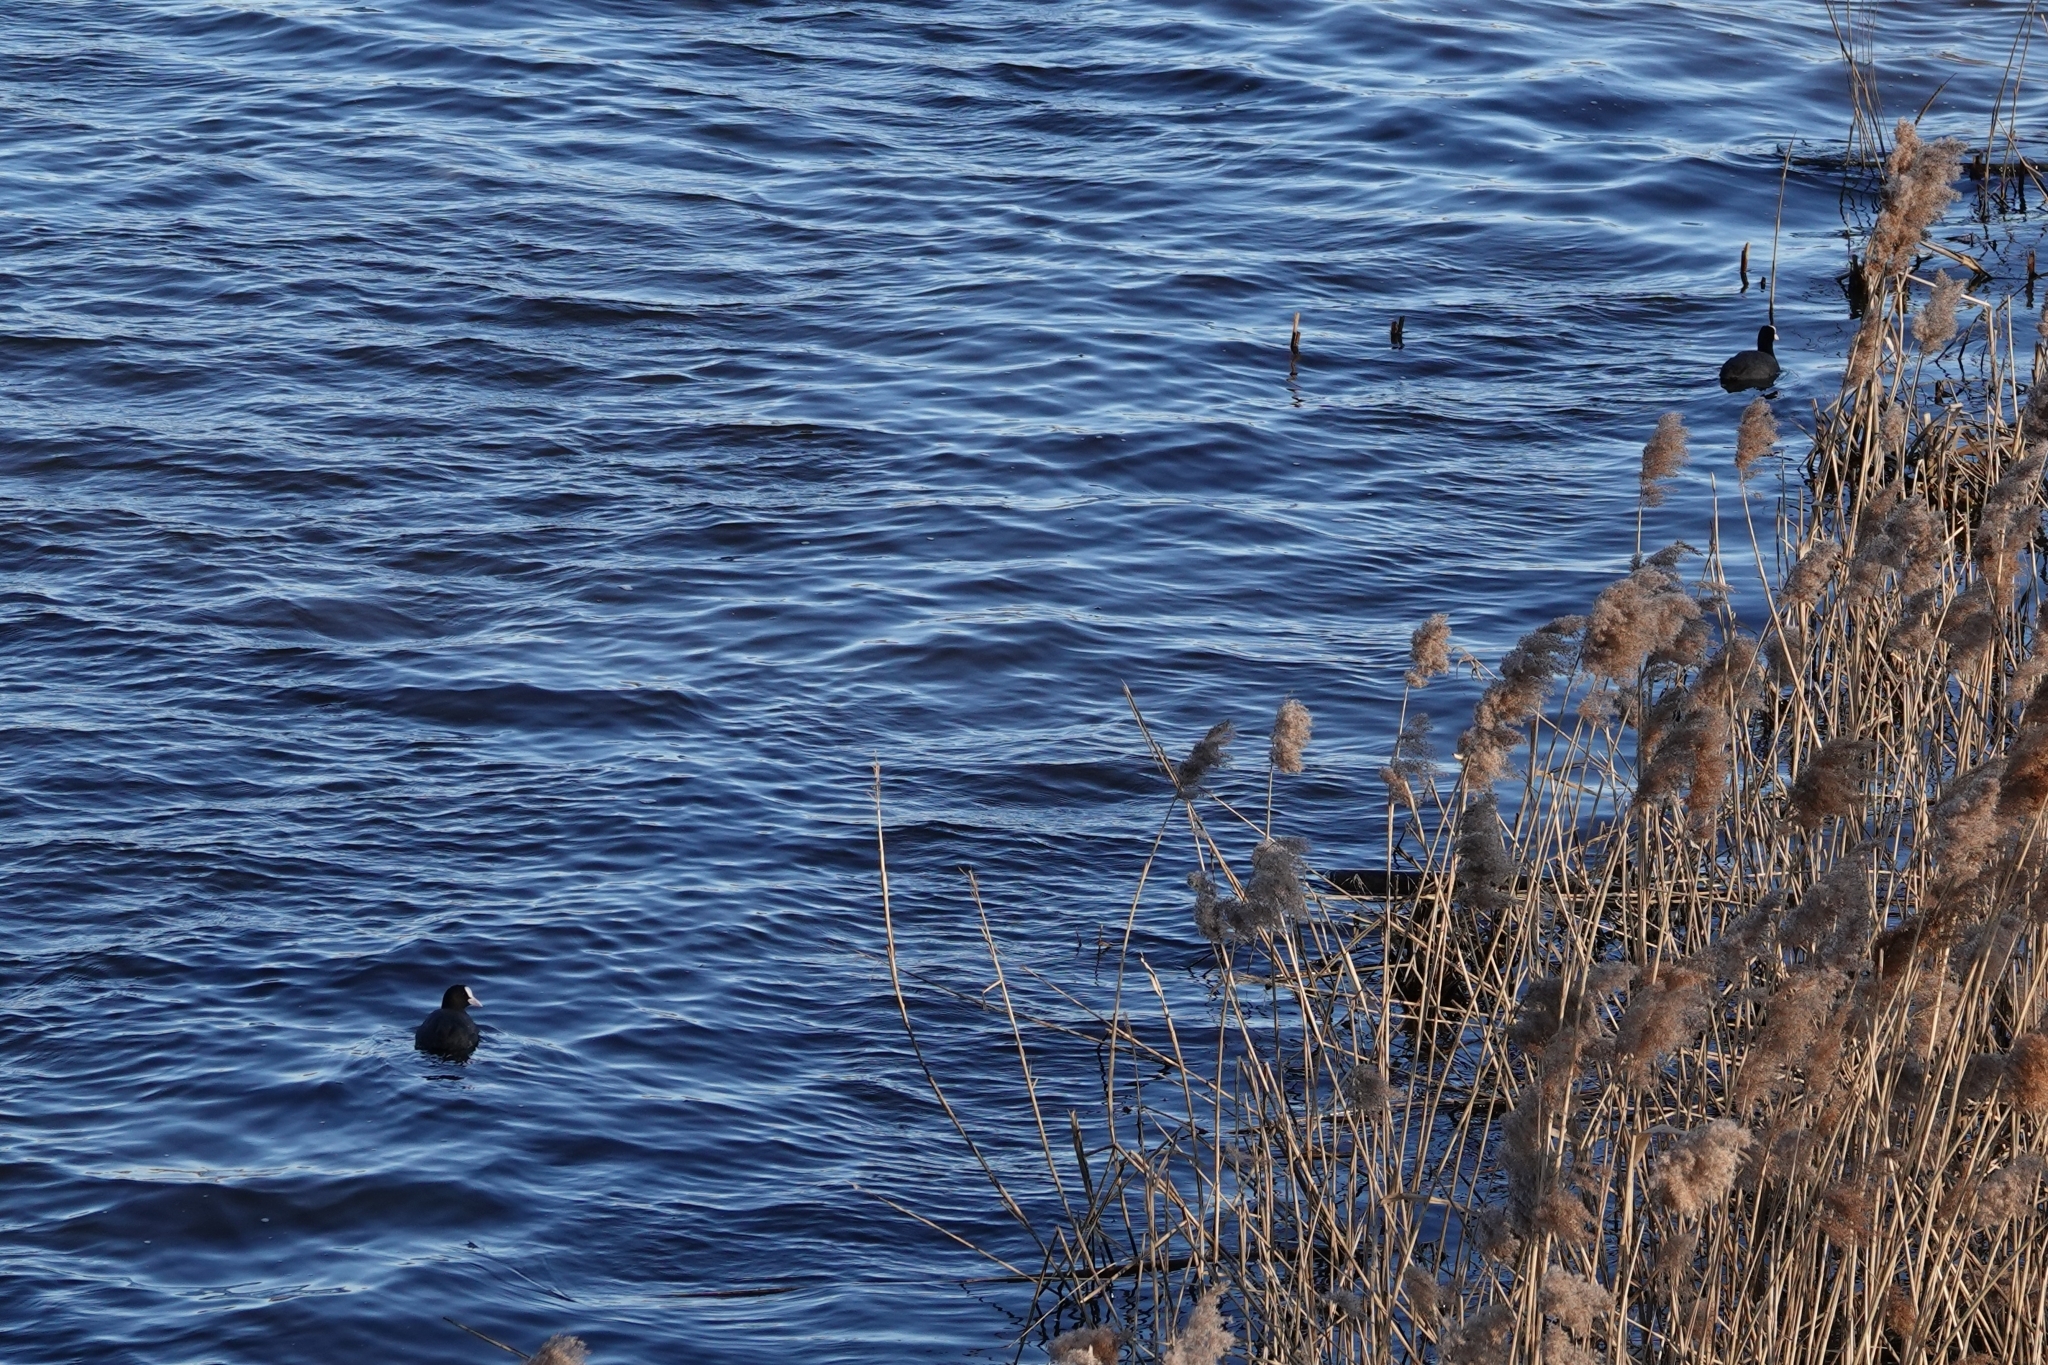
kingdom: Animalia
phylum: Chordata
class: Aves
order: Gruiformes
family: Rallidae
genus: Fulica
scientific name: Fulica atra
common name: Eurasian coot
